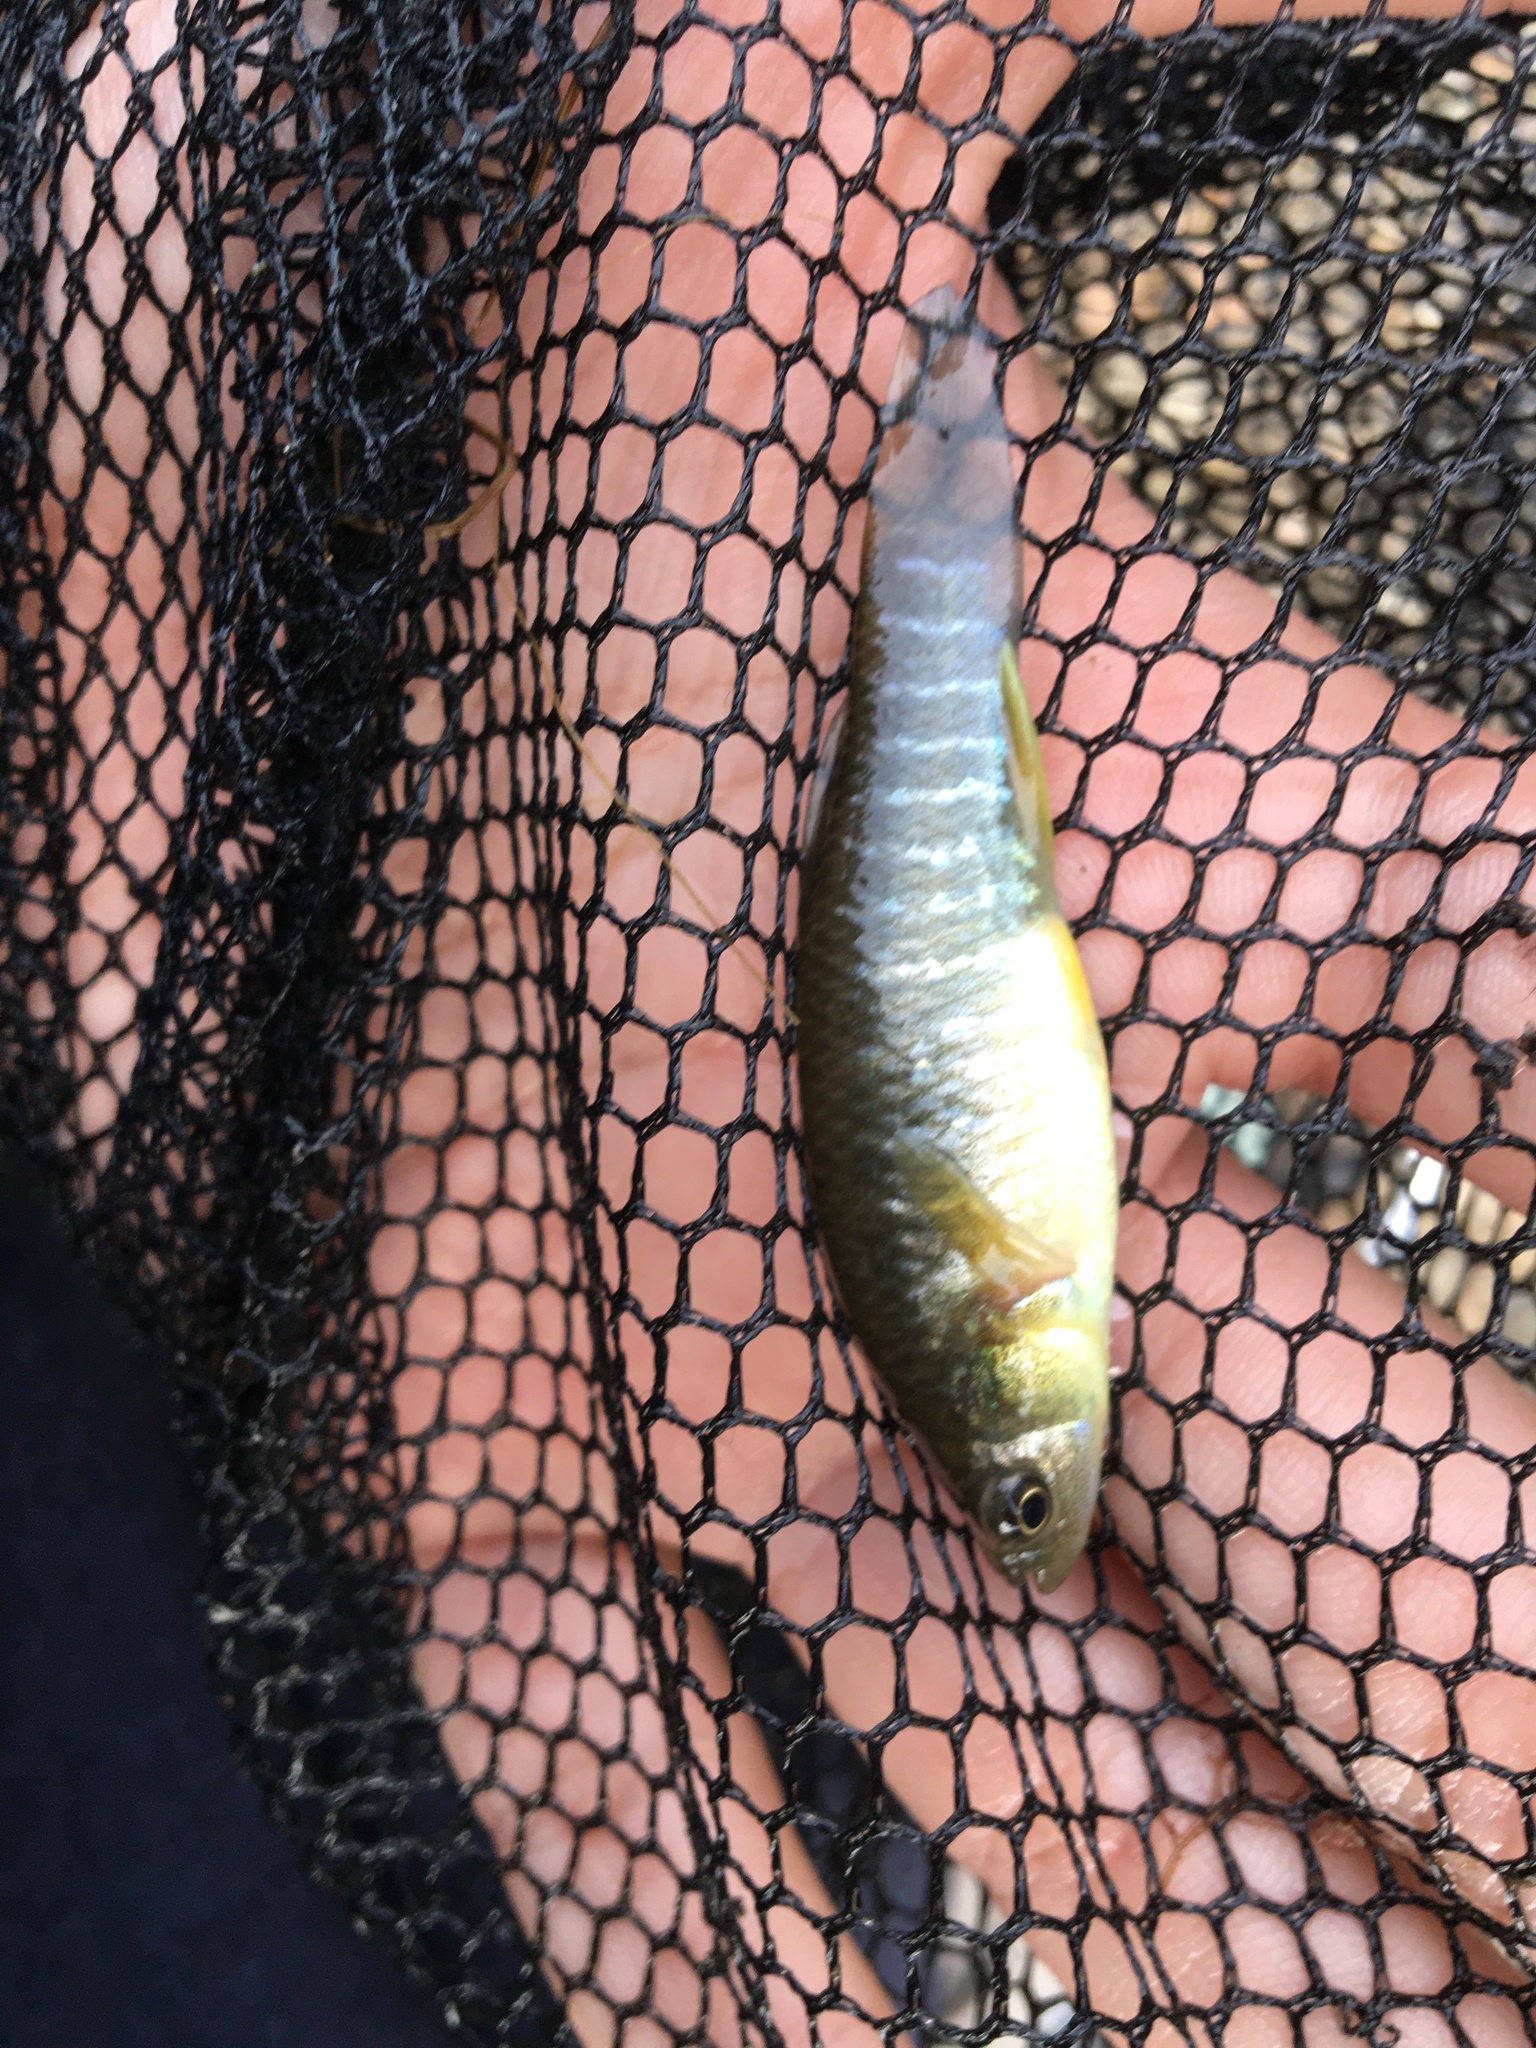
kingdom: Animalia
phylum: Chordata
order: Cyprinodontiformes
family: Fundulidae
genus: Fundulus
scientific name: Fundulus heteroclitus
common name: Mummichog
